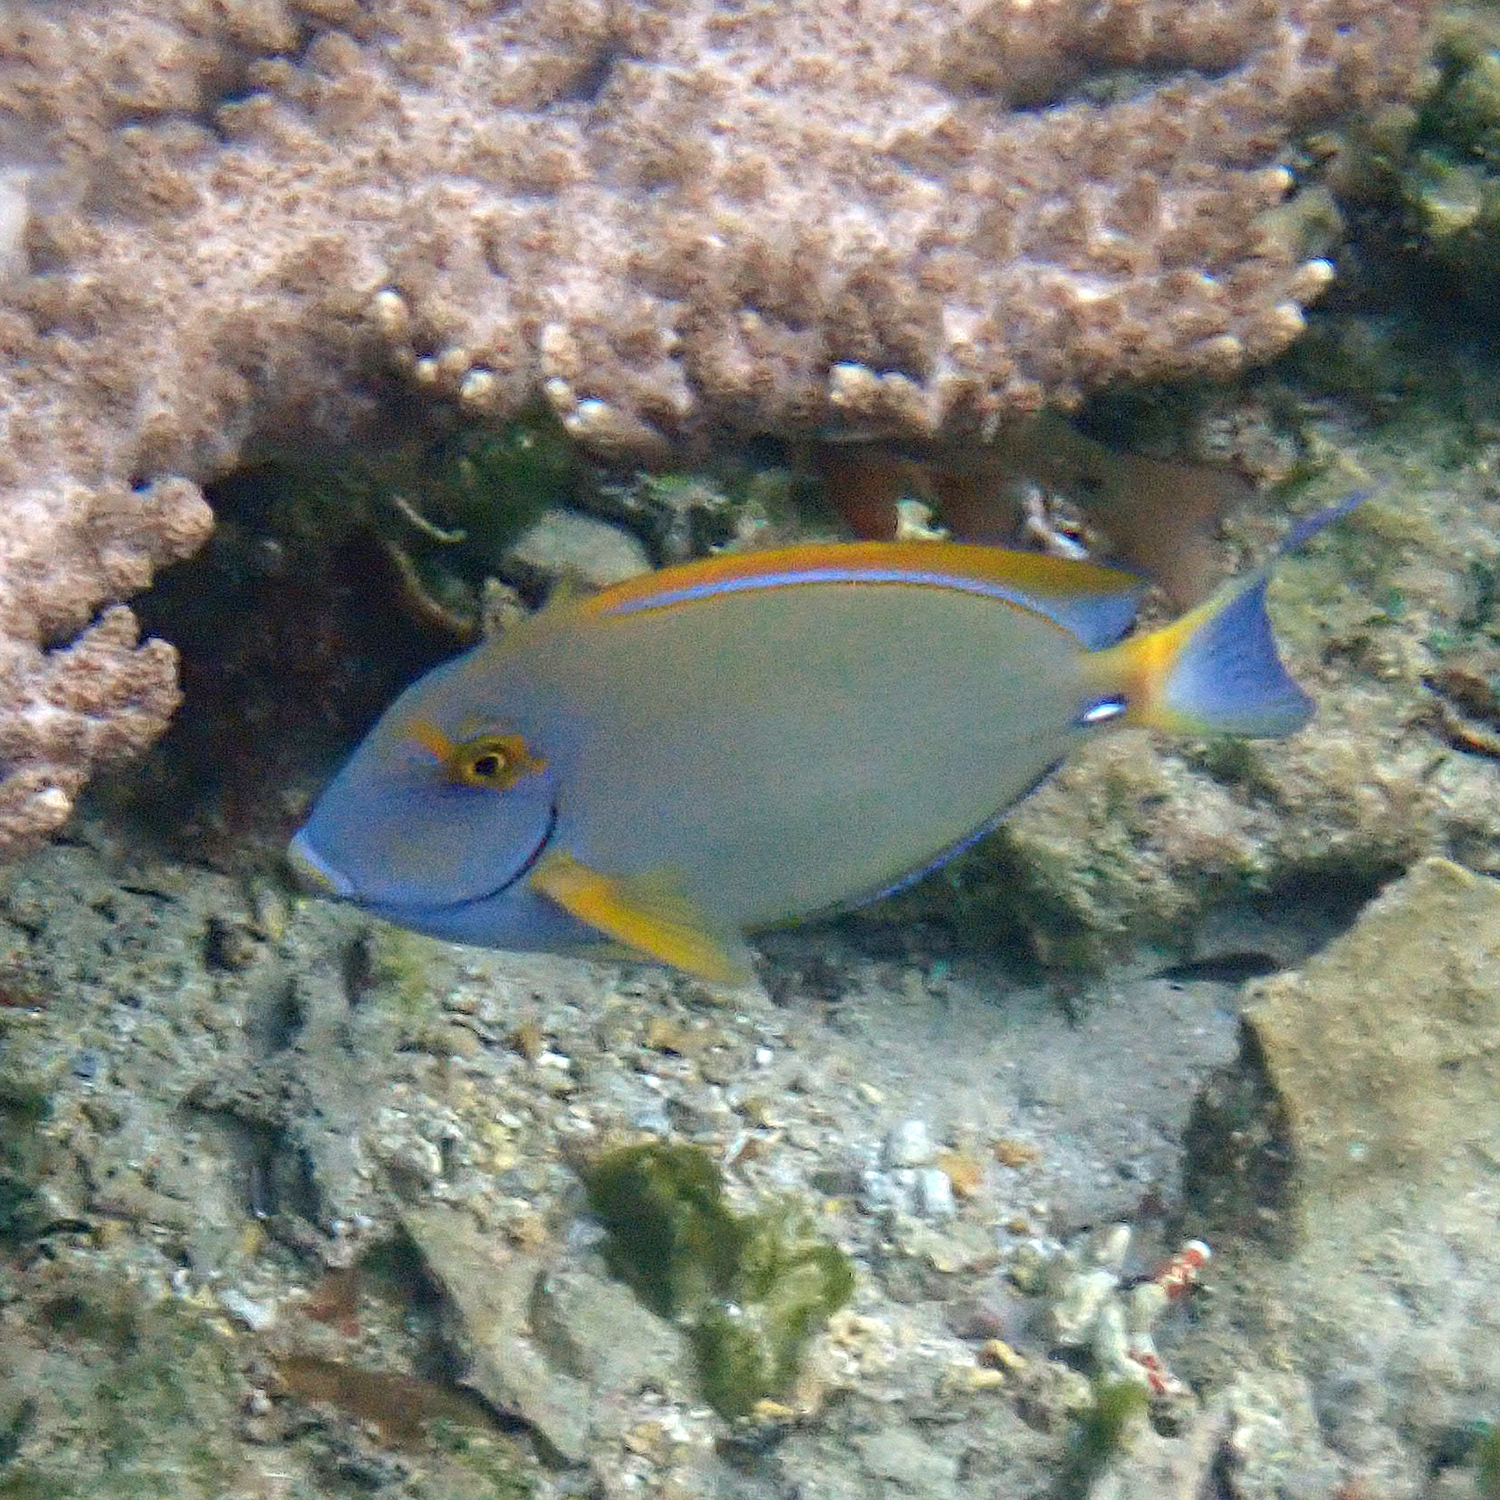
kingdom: Animalia
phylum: Chordata
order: Perciformes
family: Acanthuridae
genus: Acanthurus
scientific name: Acanthurus dussumieri
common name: Dussumier's surgeonfish
